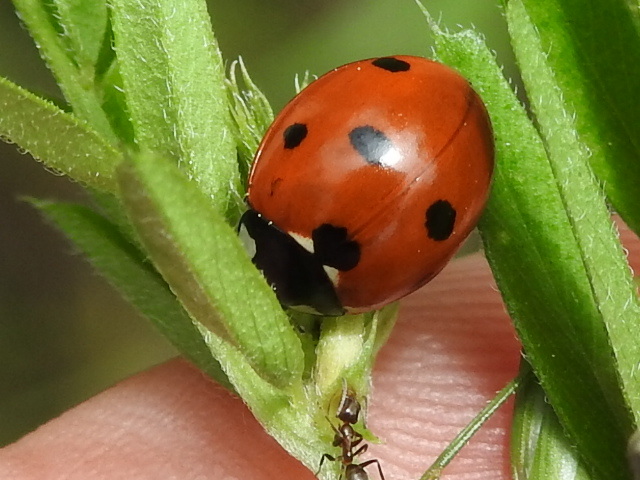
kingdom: Animalia
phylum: Arthropoda
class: Insecta
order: Coleoptera
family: Coccinellidae
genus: Coccinella
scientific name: Coccinella septempunctata
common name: Sevenspotted lady beetle
